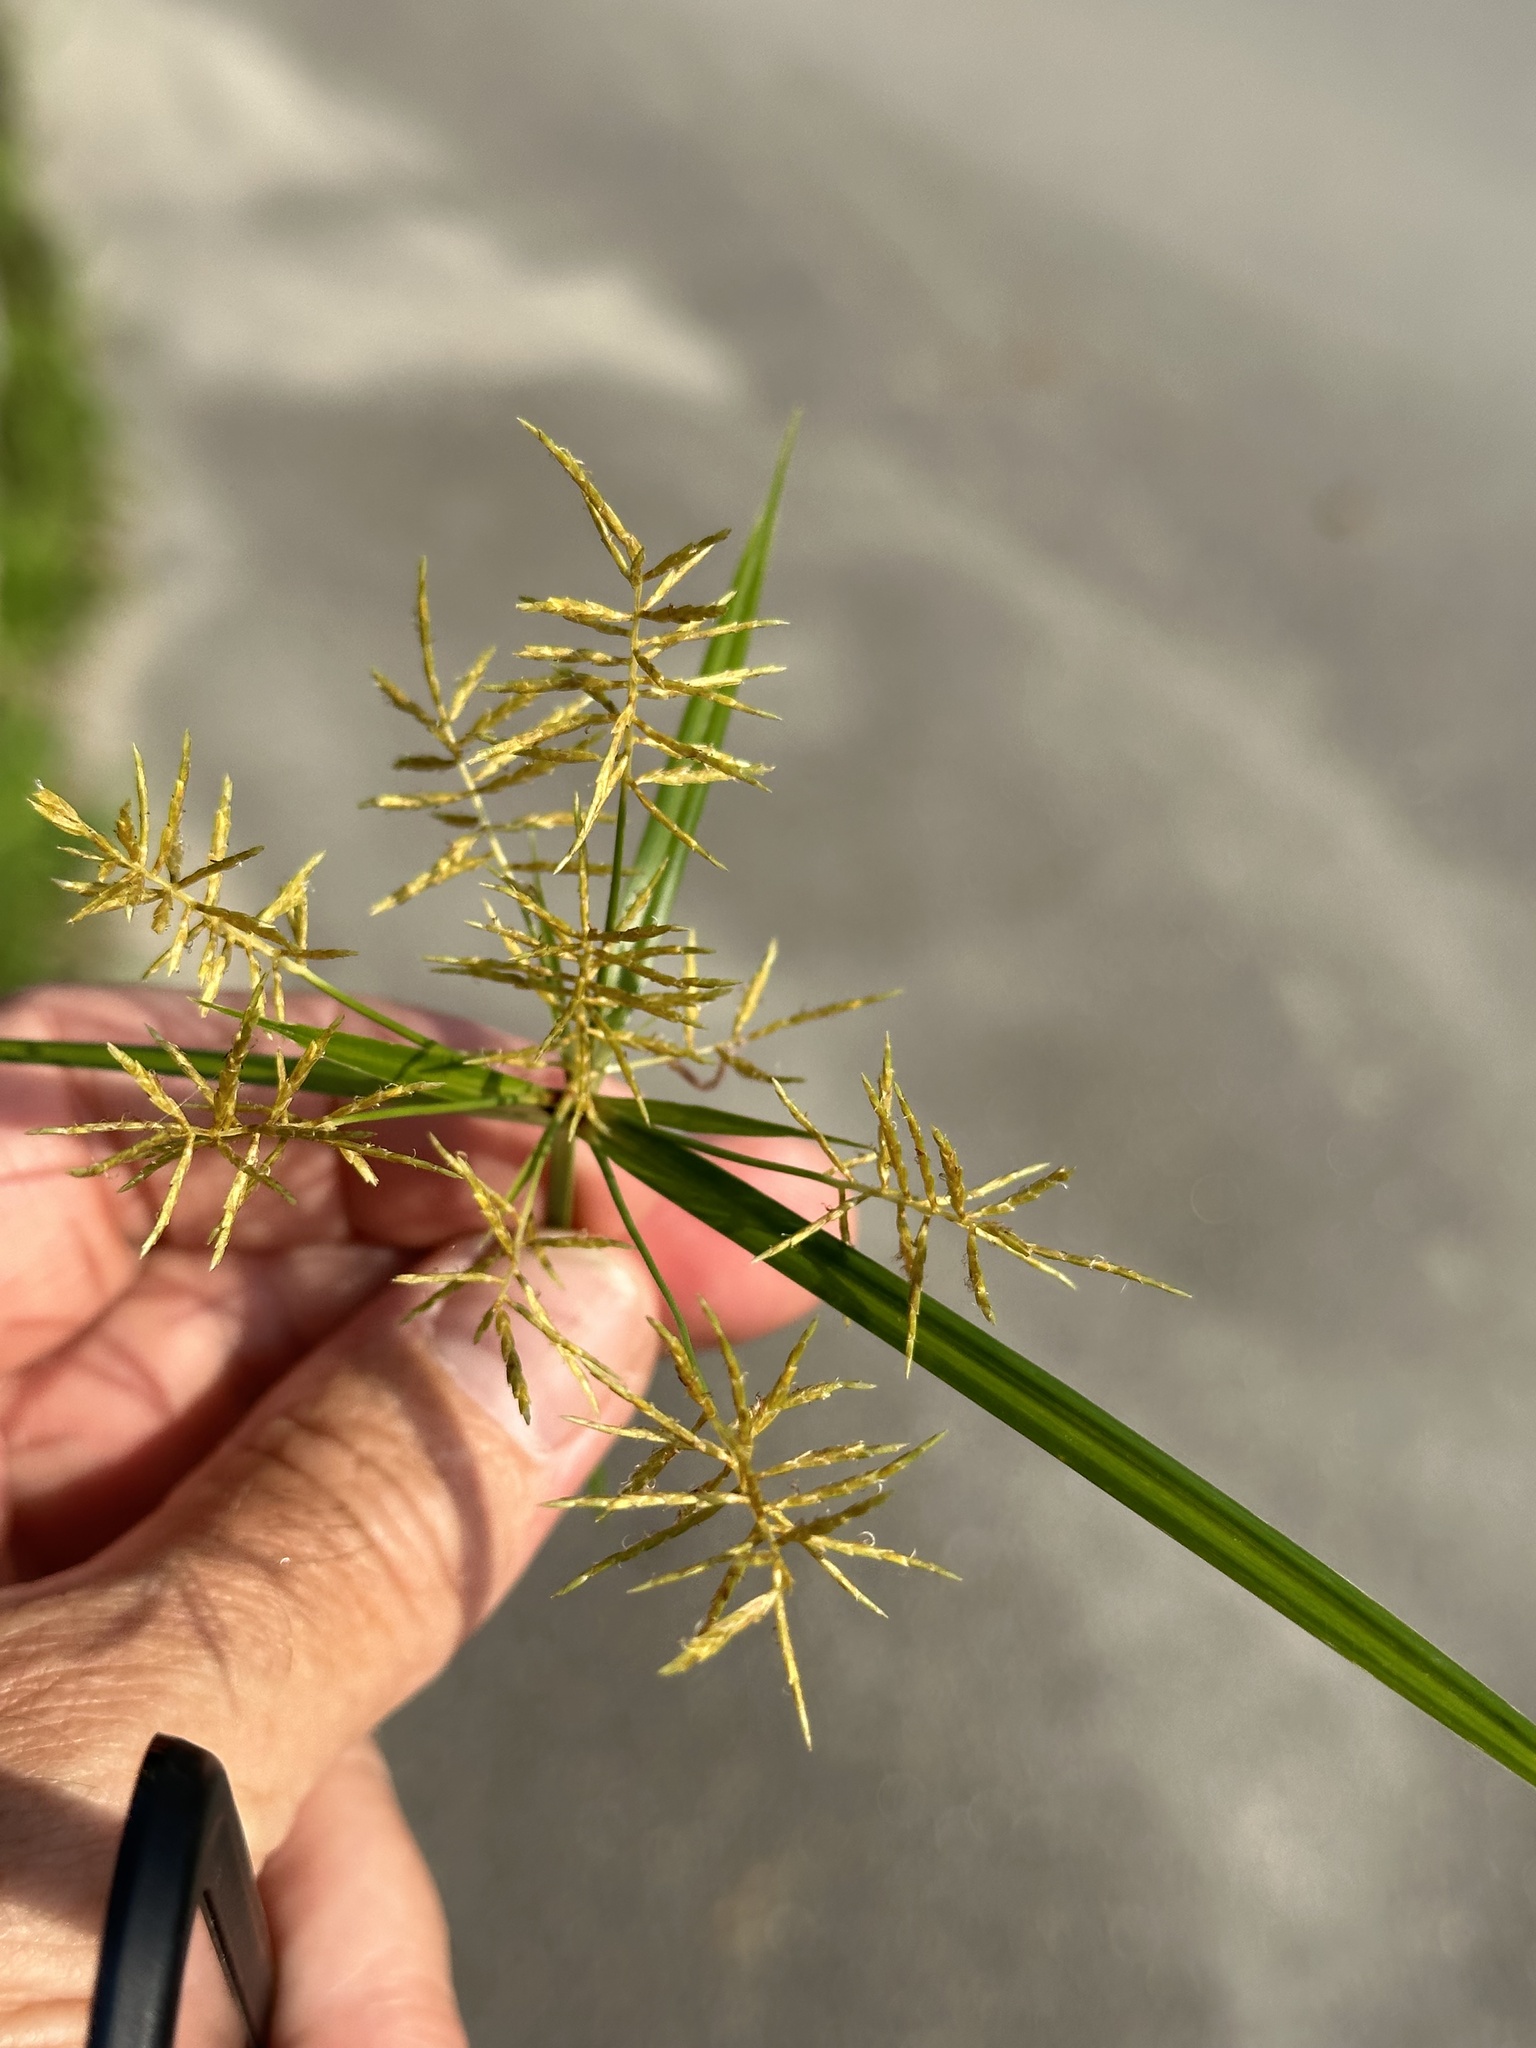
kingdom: Plantae
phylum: Tracheophyta
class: Liliopsida
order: Poales
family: Cyperaceae
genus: Cyperus
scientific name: Cyperus esculentus
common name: Yellow nutsedge
